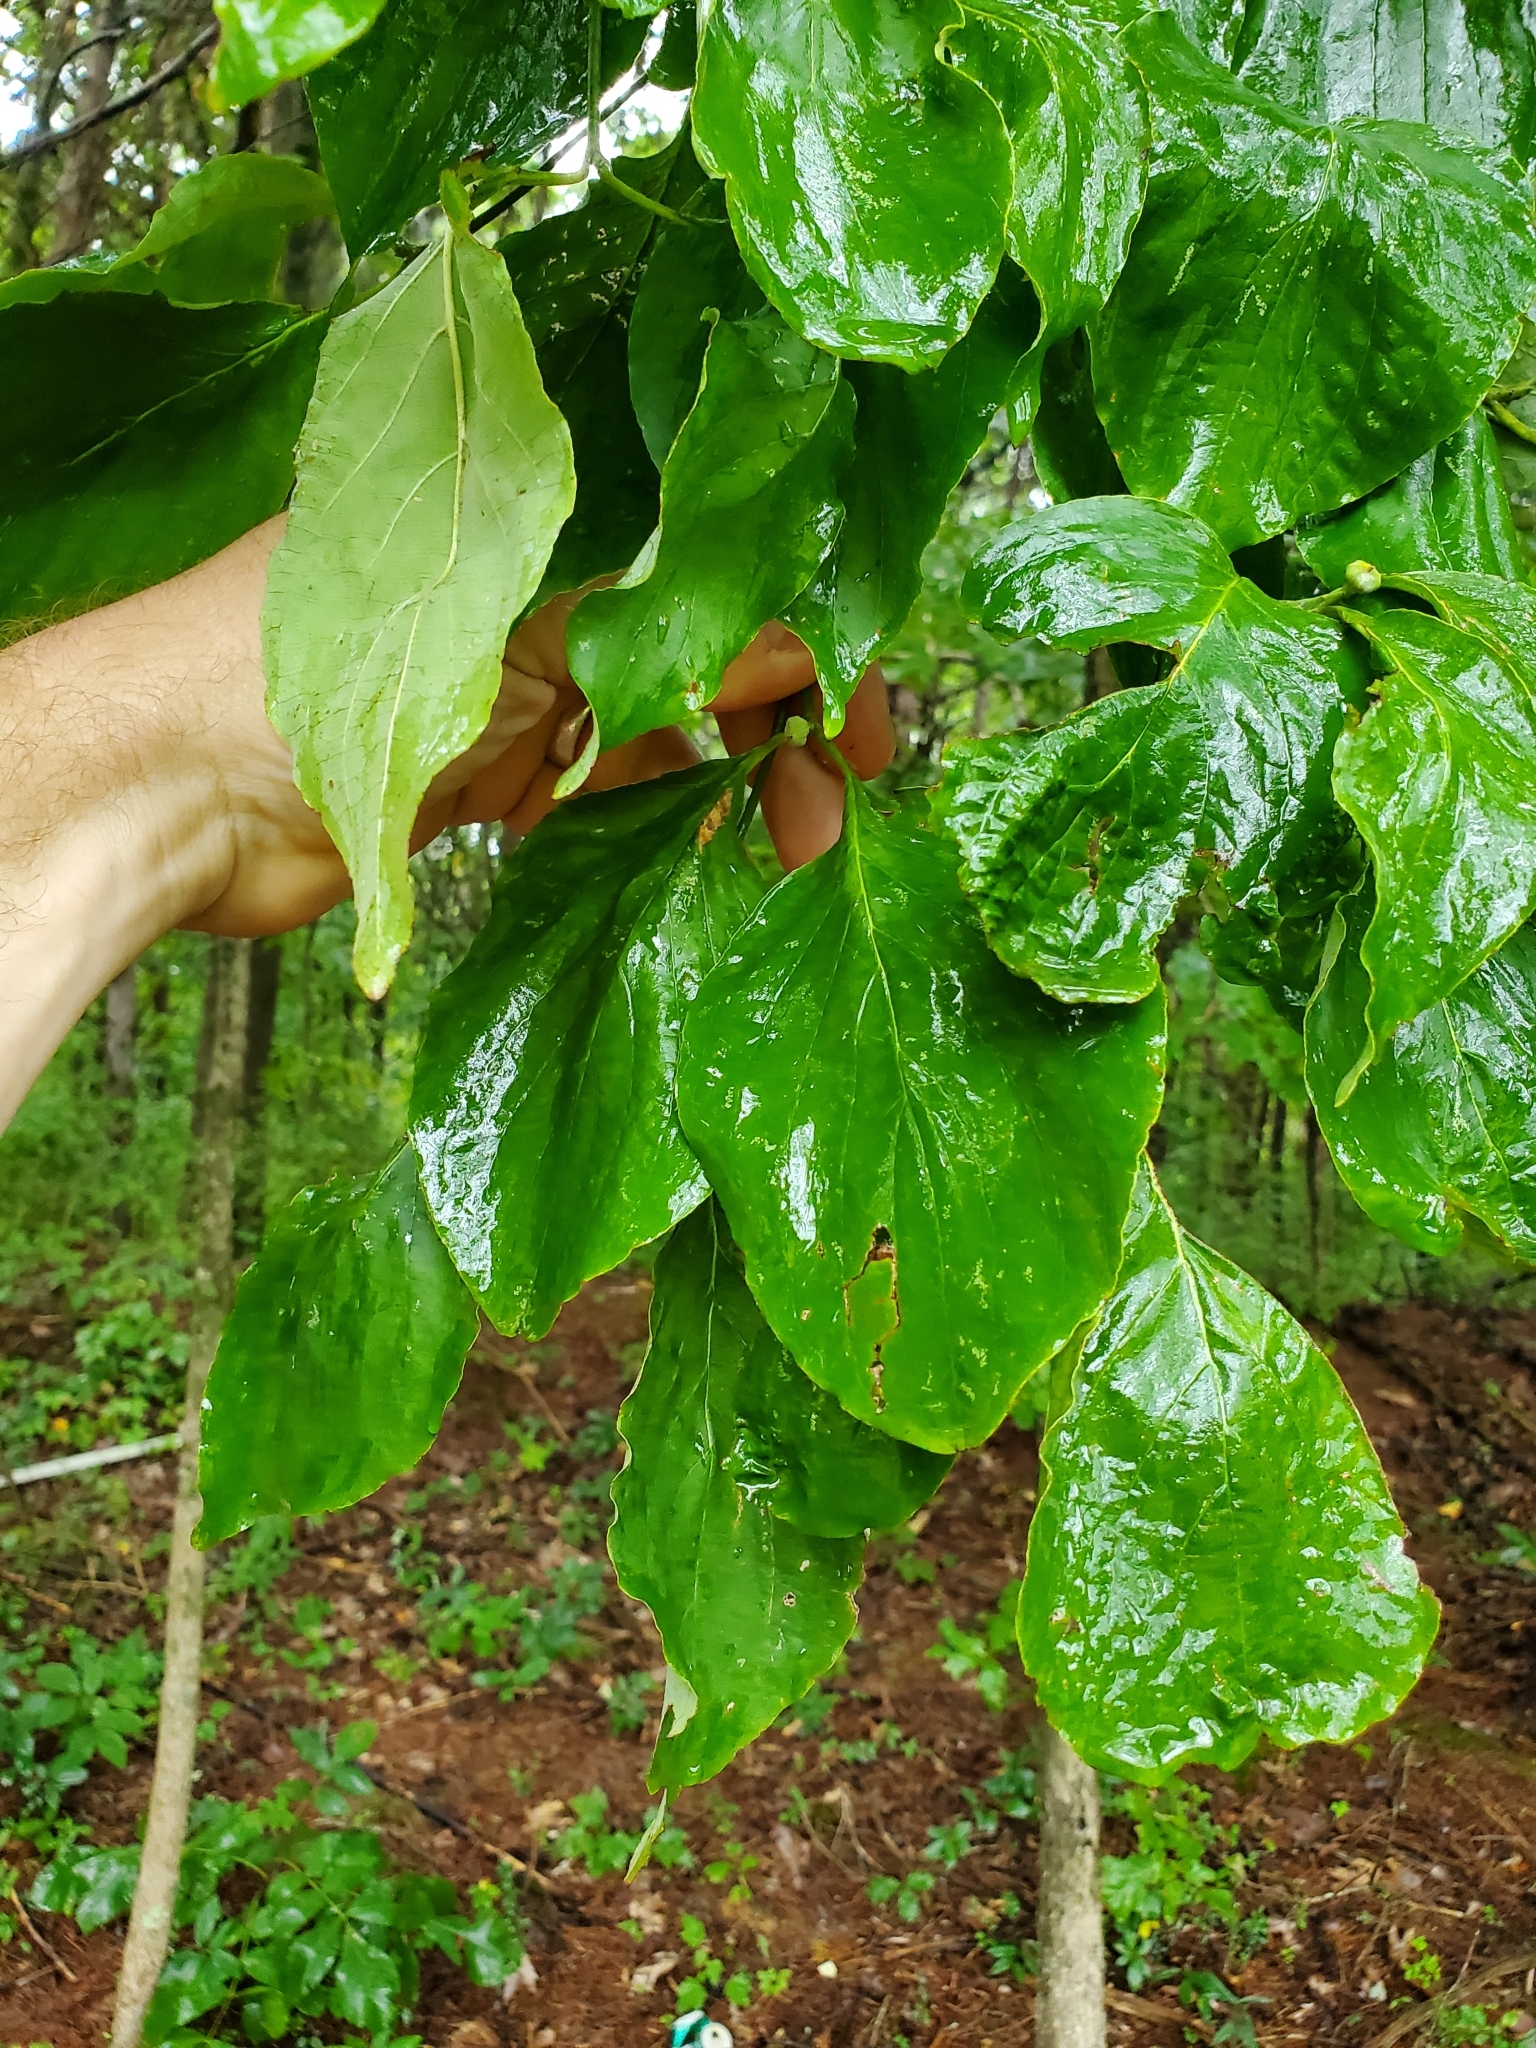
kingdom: Plantae
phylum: Tracheophyta
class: Magnoliopsida
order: Cornales
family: Cornaceae
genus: Cornus
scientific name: Cornus florida
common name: Flowering dogwood
